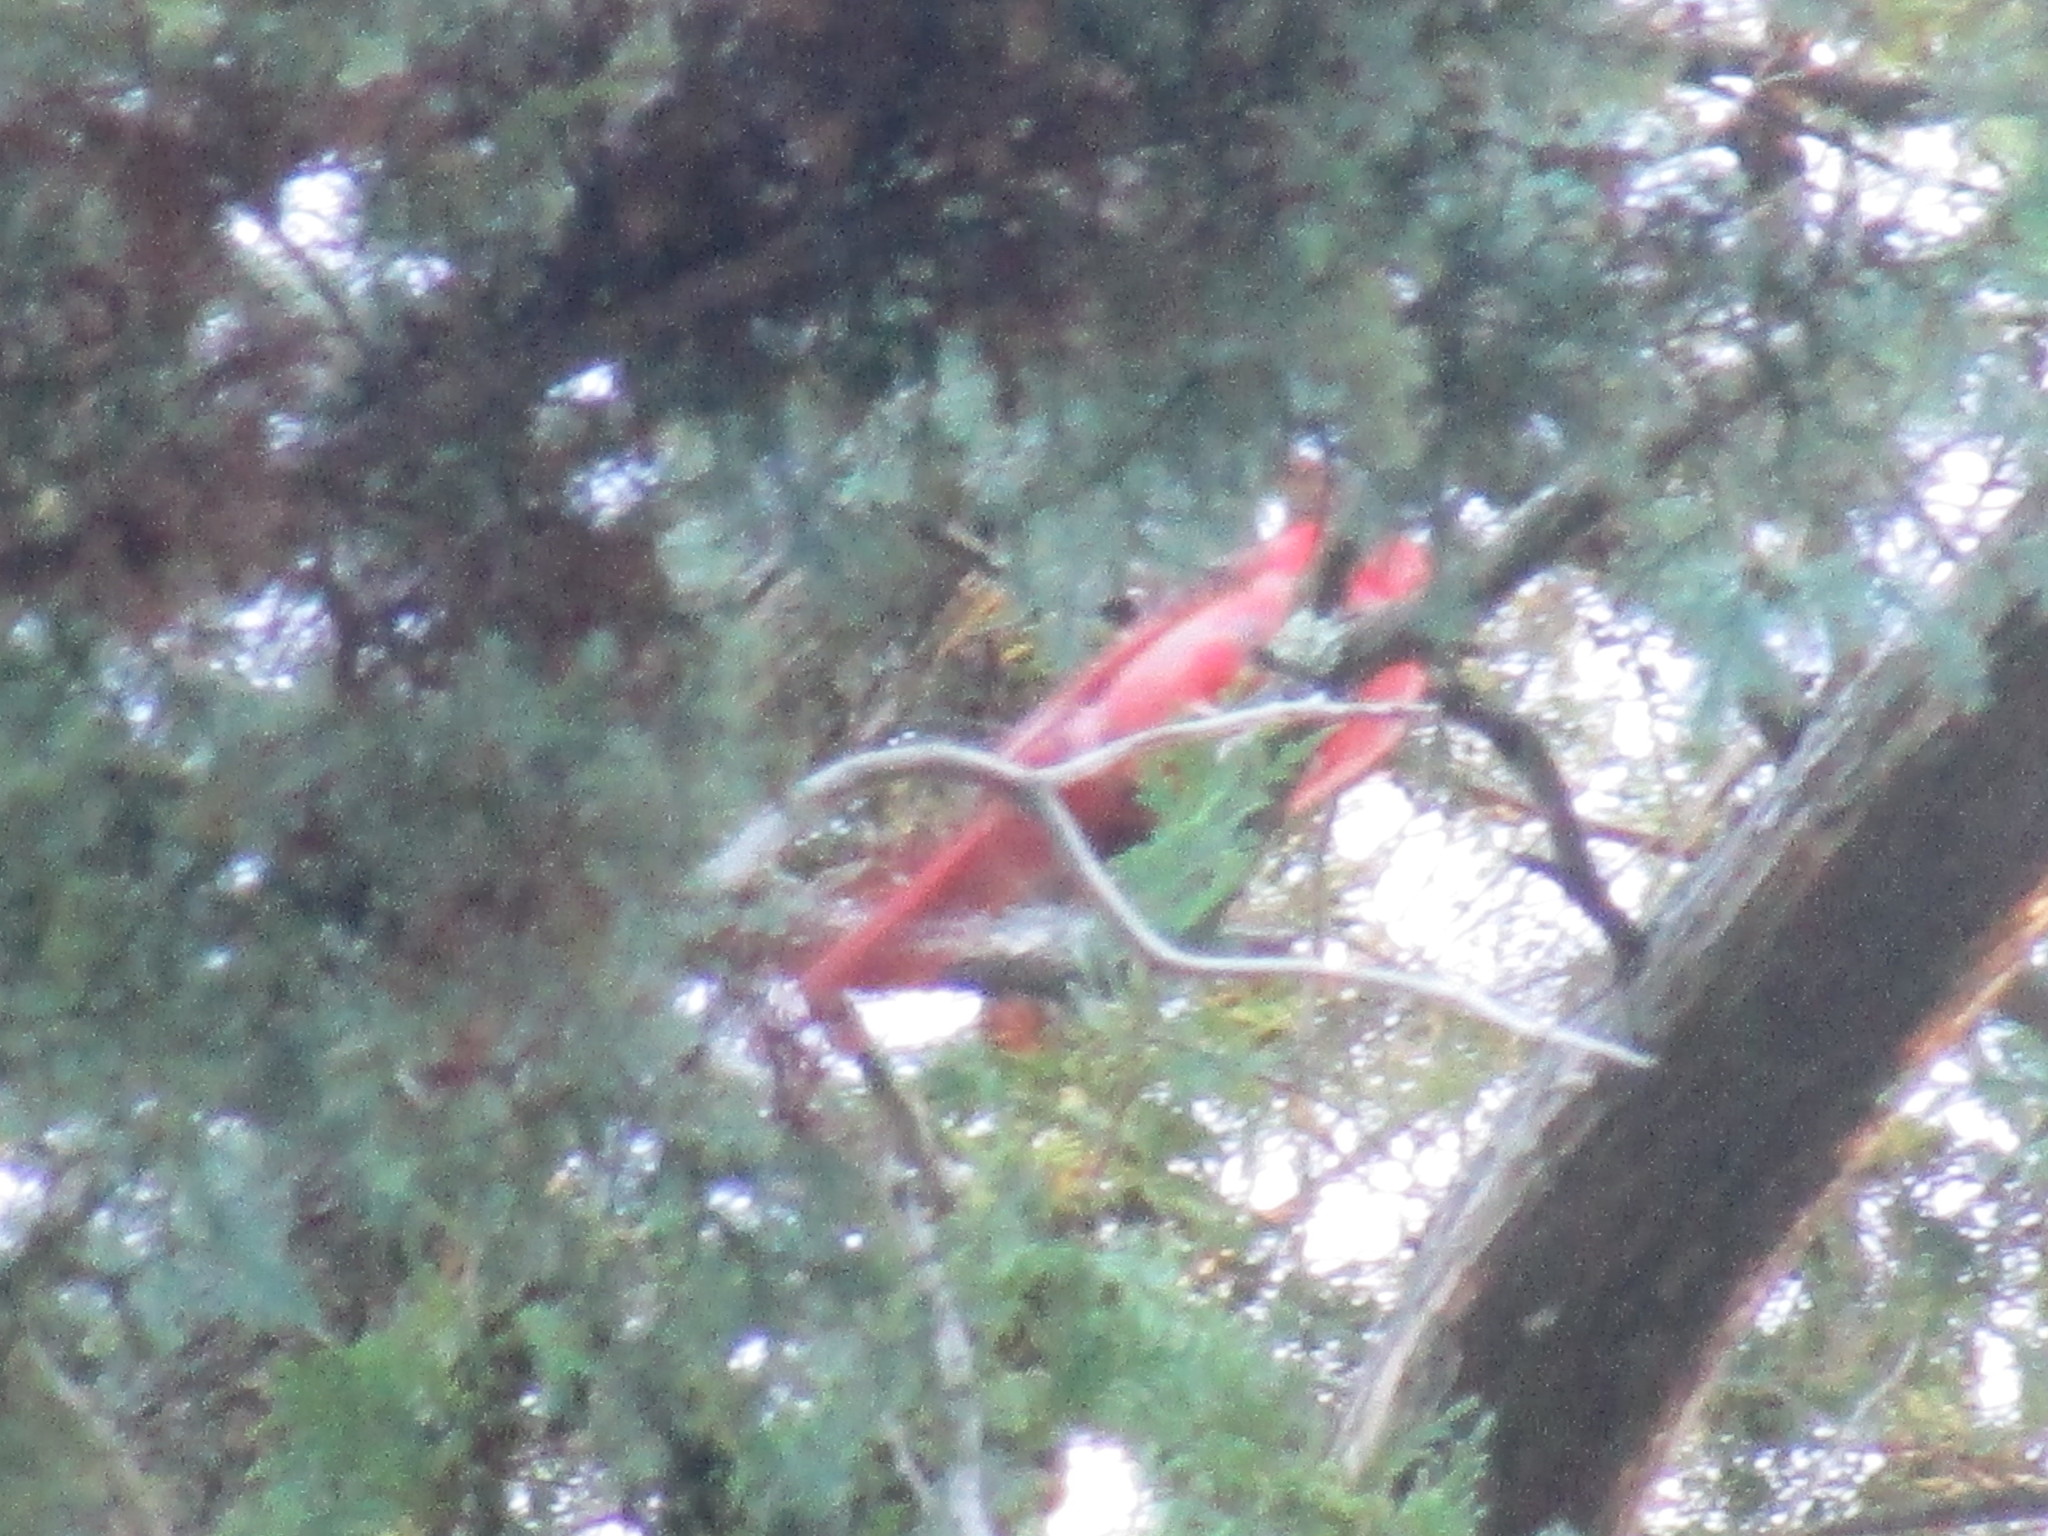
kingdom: Animalia
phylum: Chordata
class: Aves
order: Passeriformes
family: Cardinalidae
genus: Cardinalis
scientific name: Cardinalis cardinalis
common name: Northern cardinal
